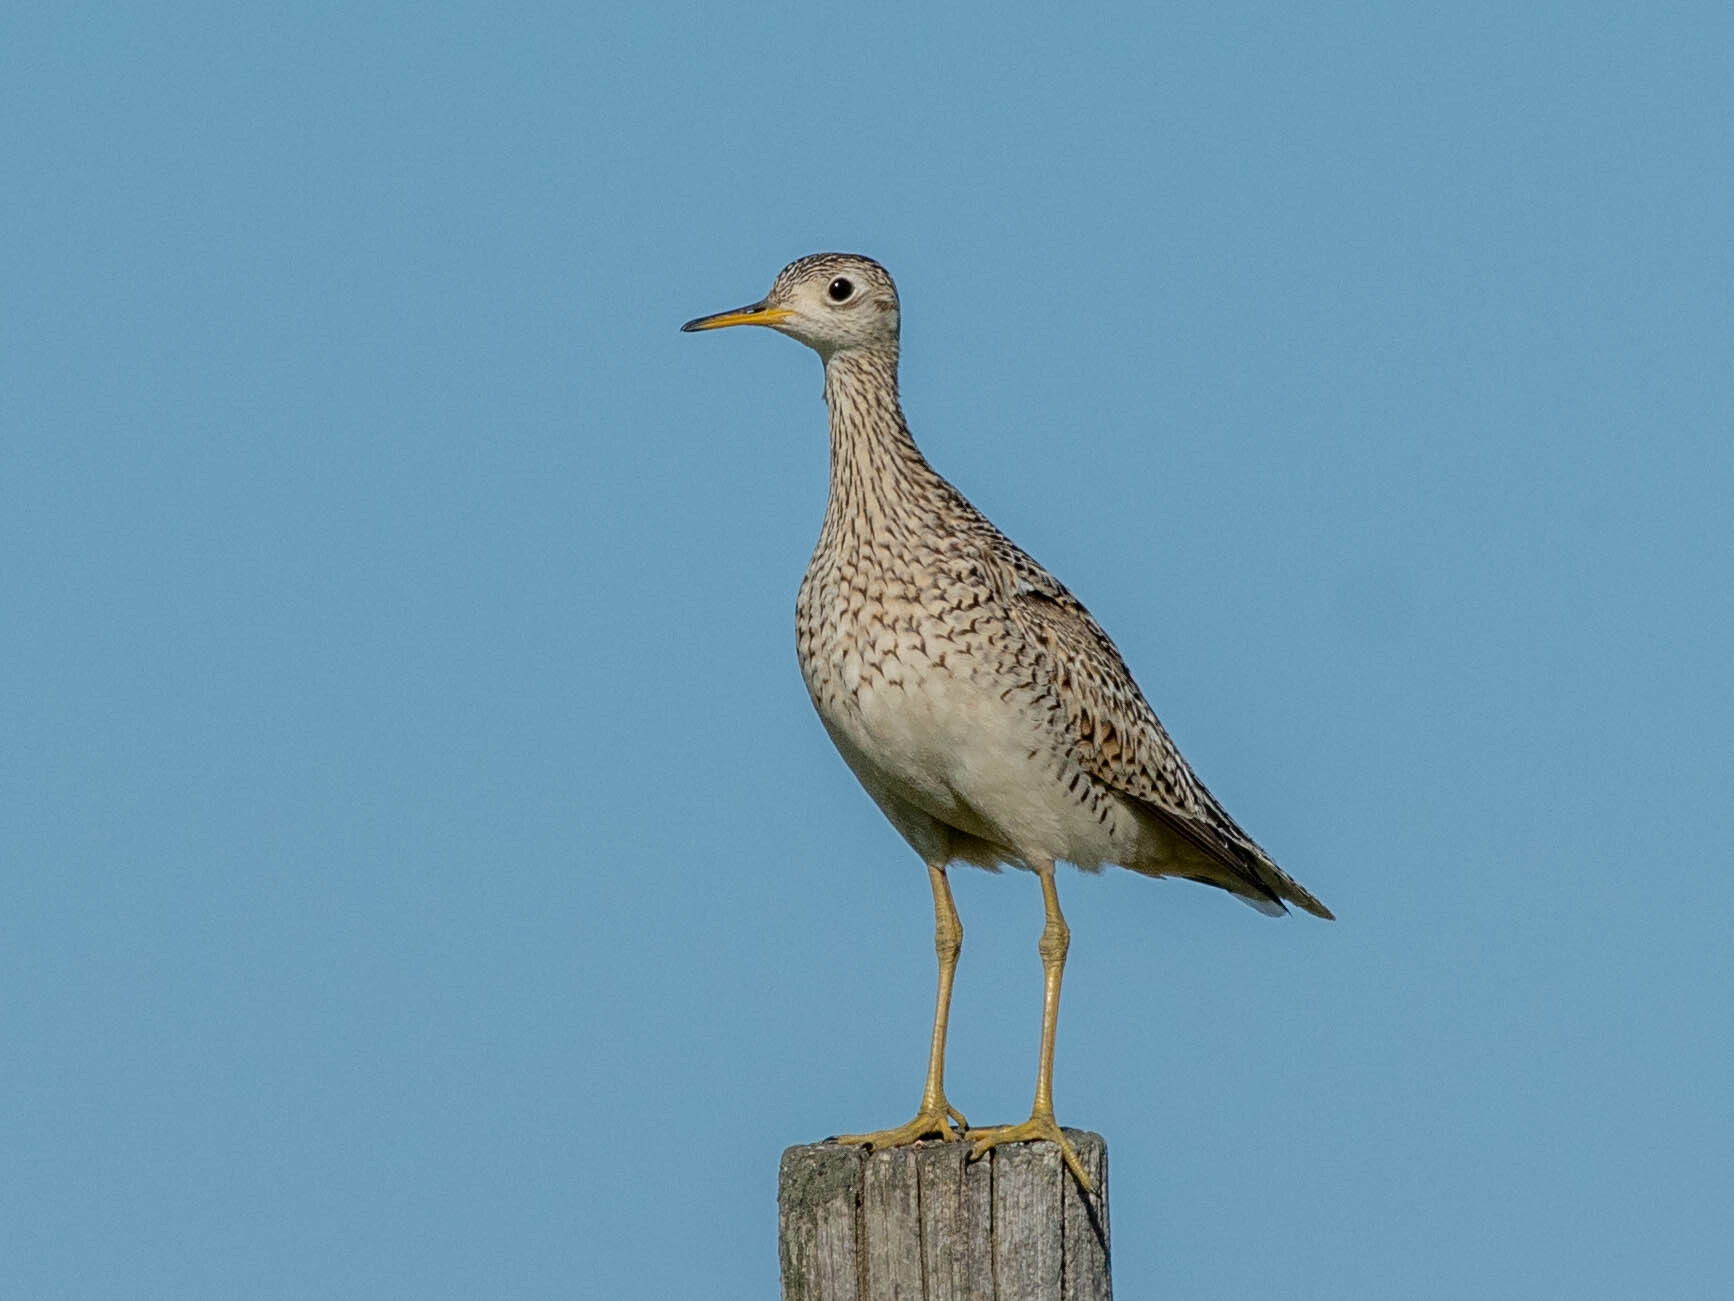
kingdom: Animalia
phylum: Chordata
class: Aves
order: Charadriiformes
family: Scolopacidae
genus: Bartramia
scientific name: Bartramia longicauda
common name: Upland sandpiper
